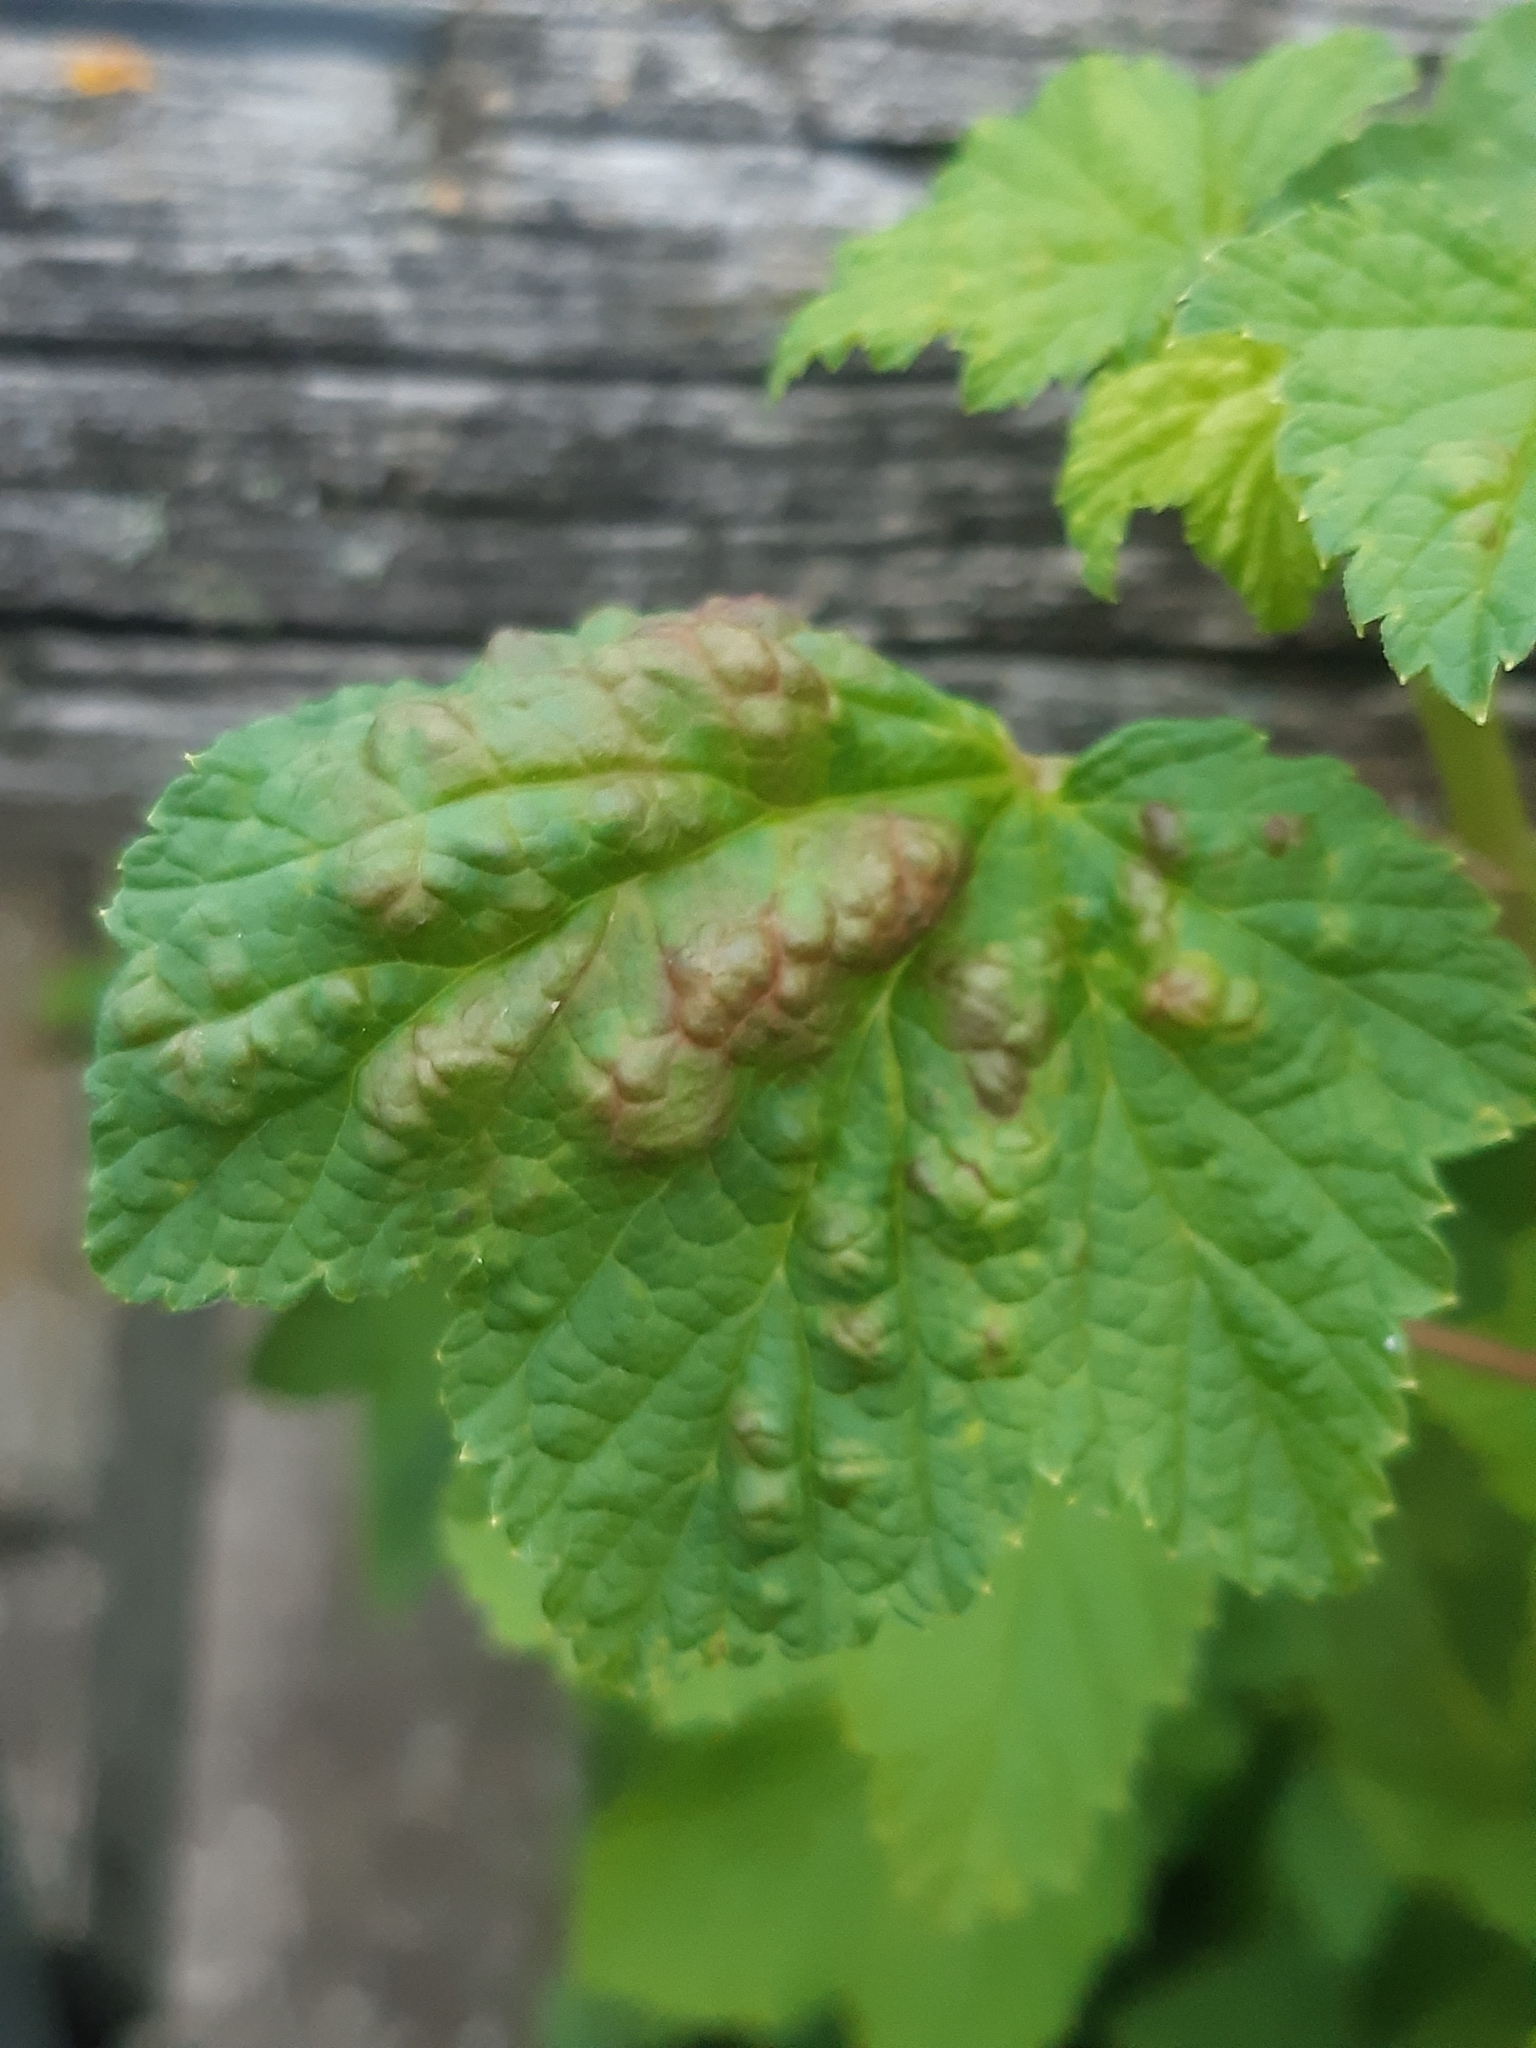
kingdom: Animalia
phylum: Arthropoda
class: Insecta
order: Hemiptera
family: Aphididae
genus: Cryptomyzus
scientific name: Cryptomyzus ribis
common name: Currant aphid
